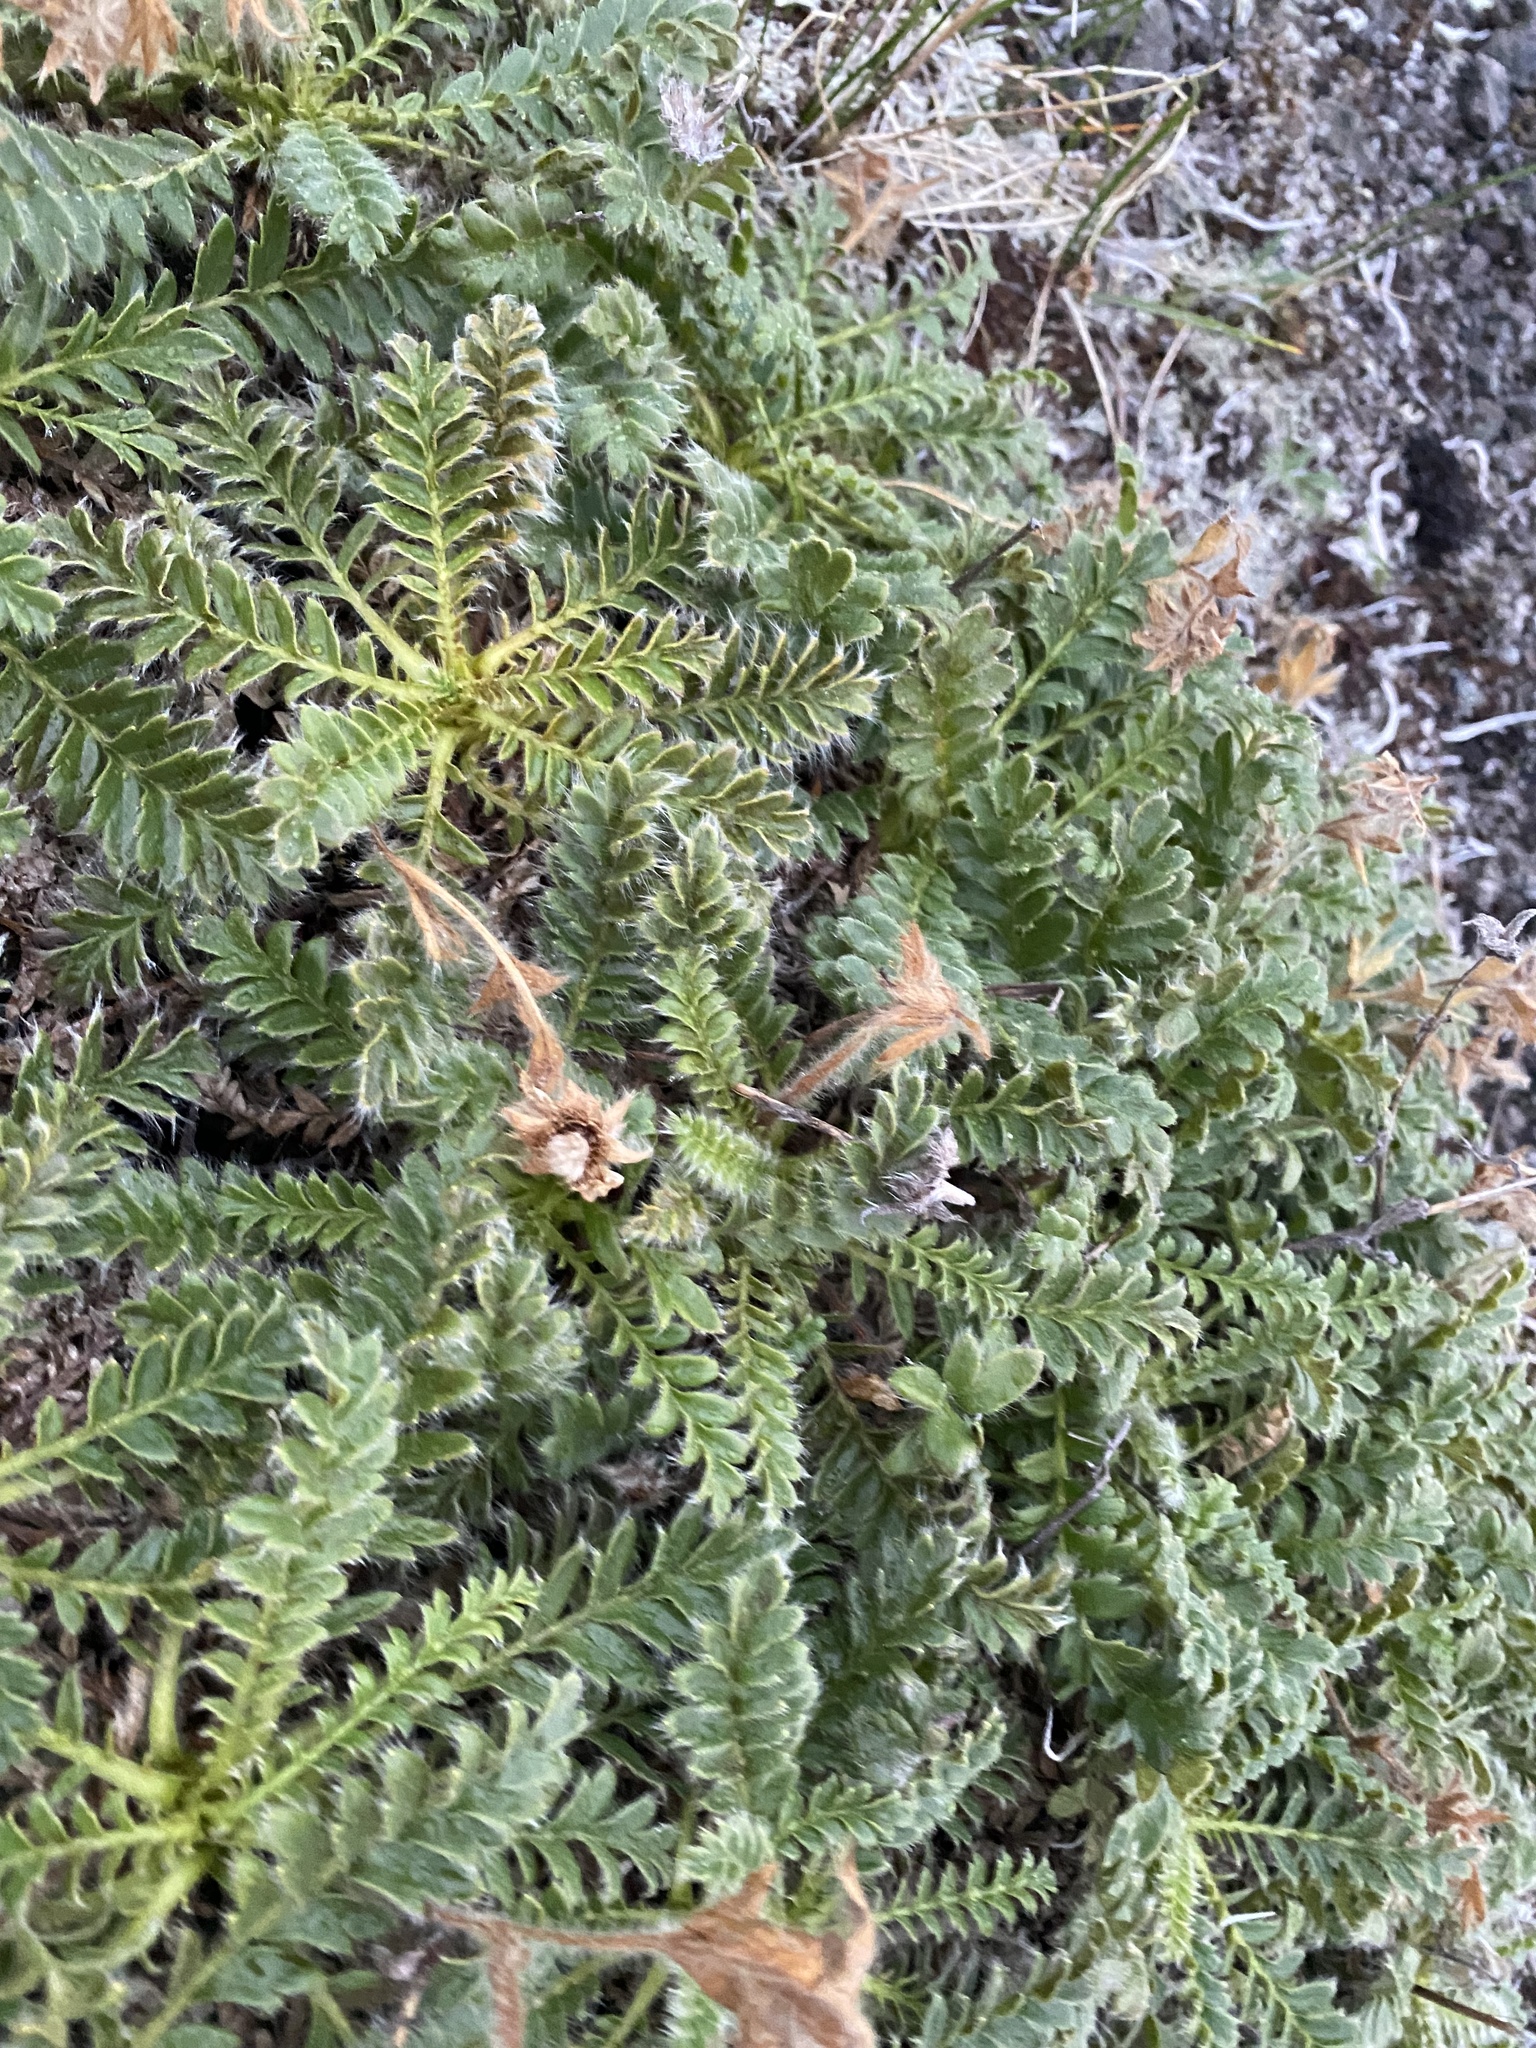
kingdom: Plantae
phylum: Tracheophyta
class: Magnoliopsida
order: Rosales
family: Rosaceae
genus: Geum
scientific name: Geum glaciale
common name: Glacier avens
